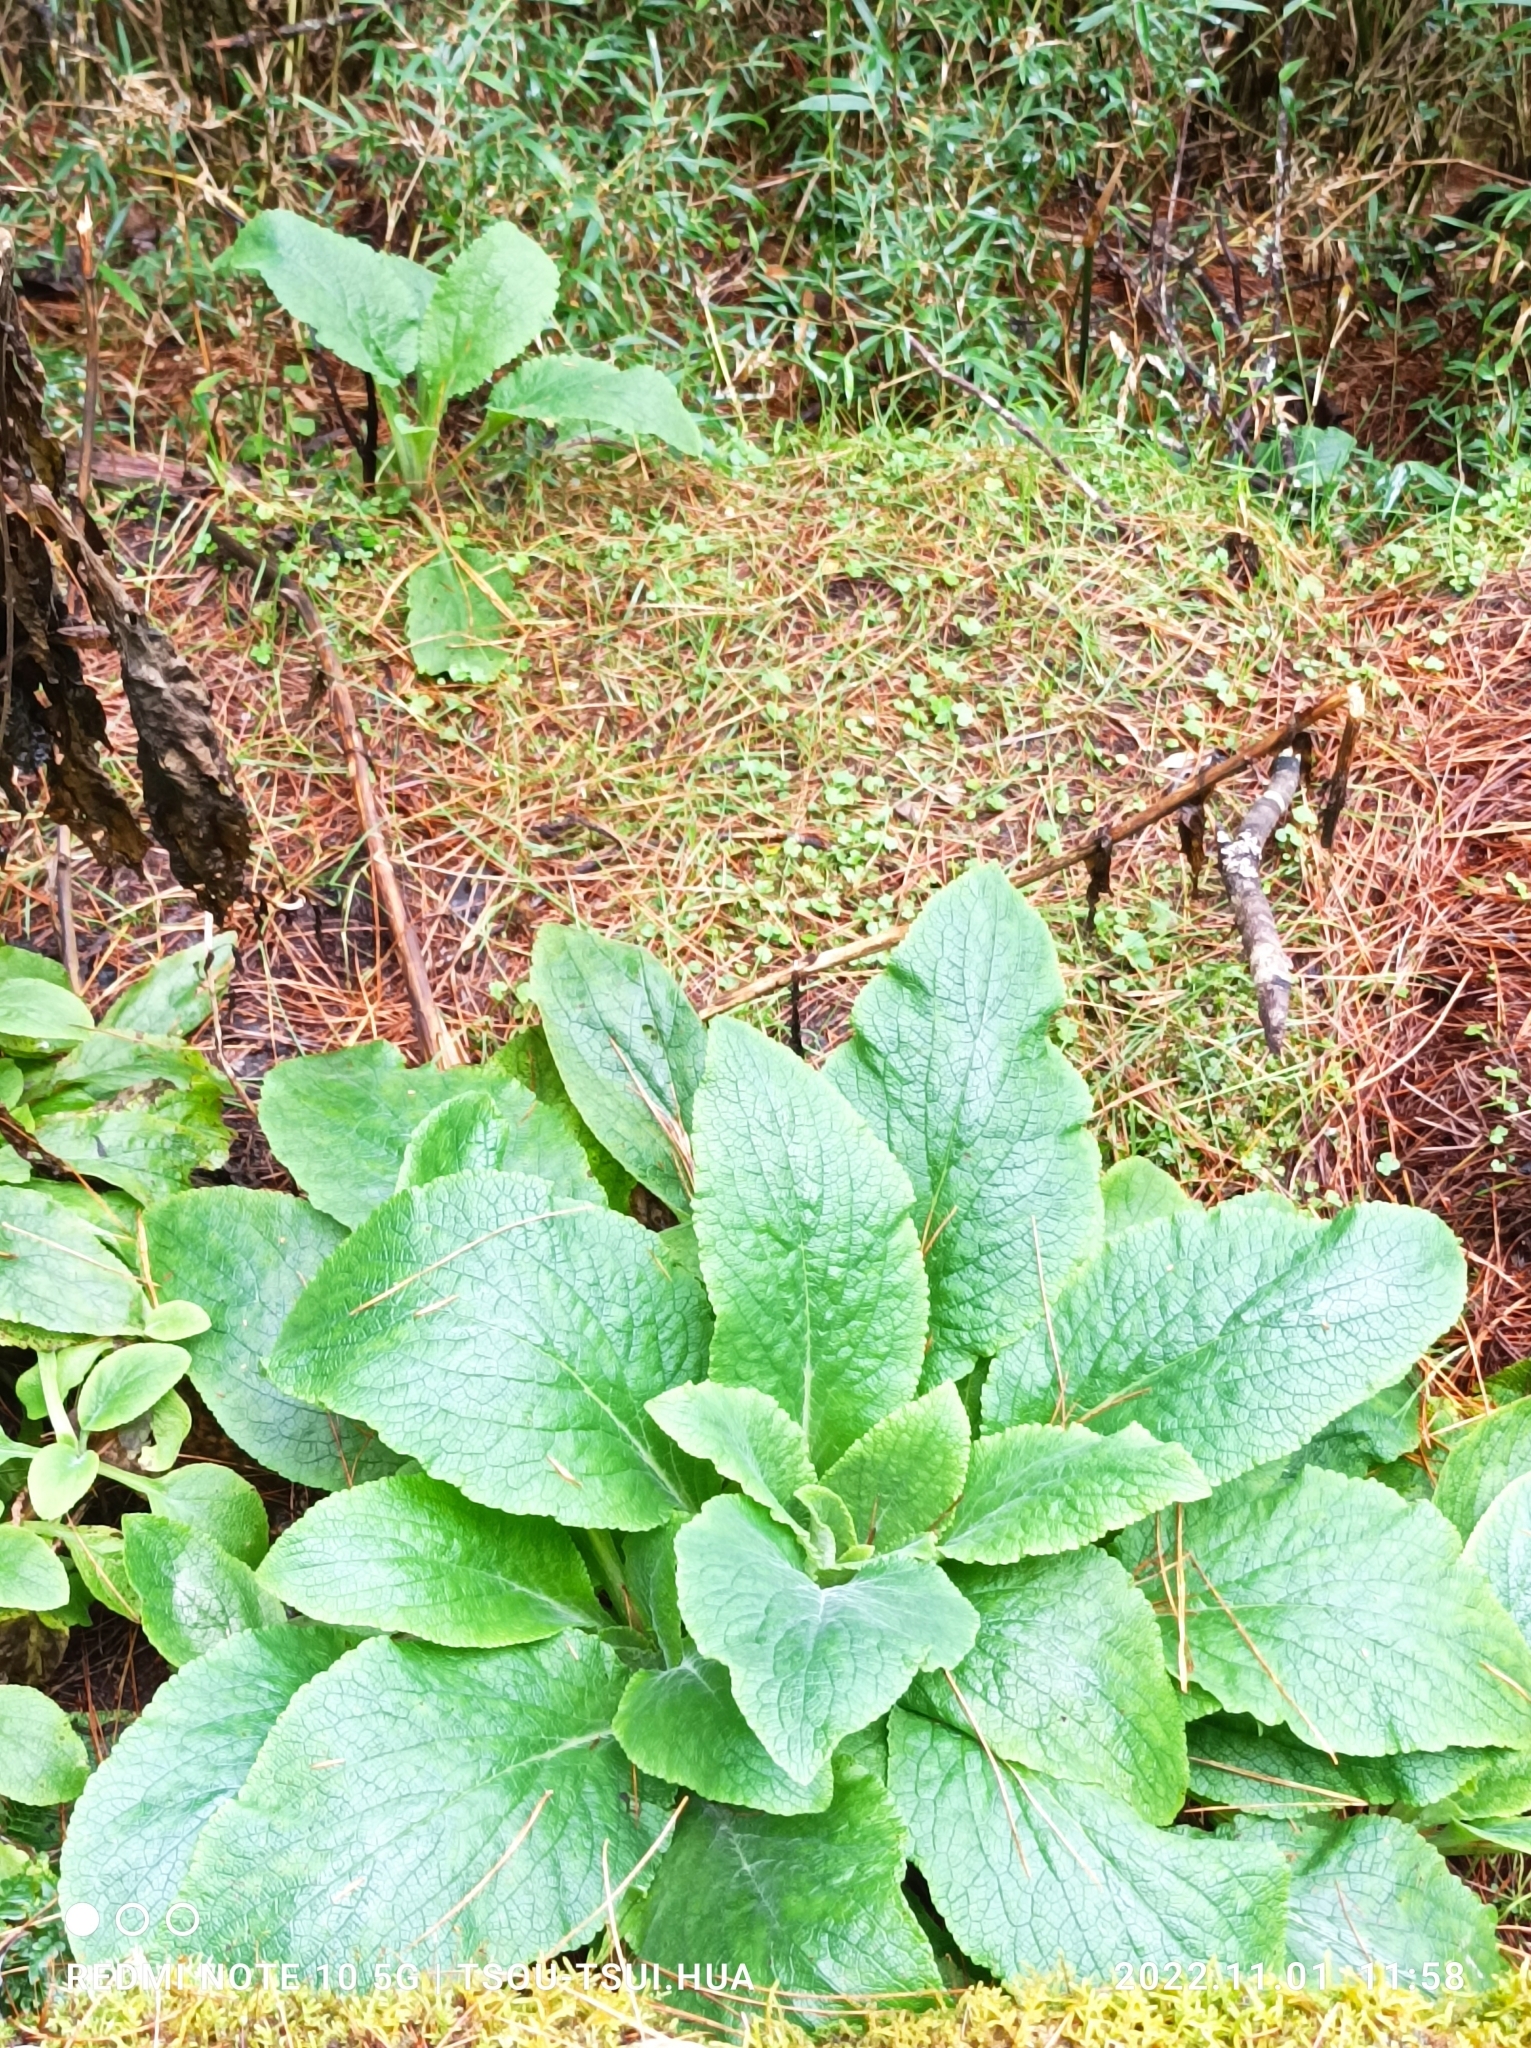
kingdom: Plantae
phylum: Tracheophyta
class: Magnoliopsida
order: Lamiales
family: Plantaginaceae
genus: Digitalis
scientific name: Digitalis purpurea
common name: Foxglove
